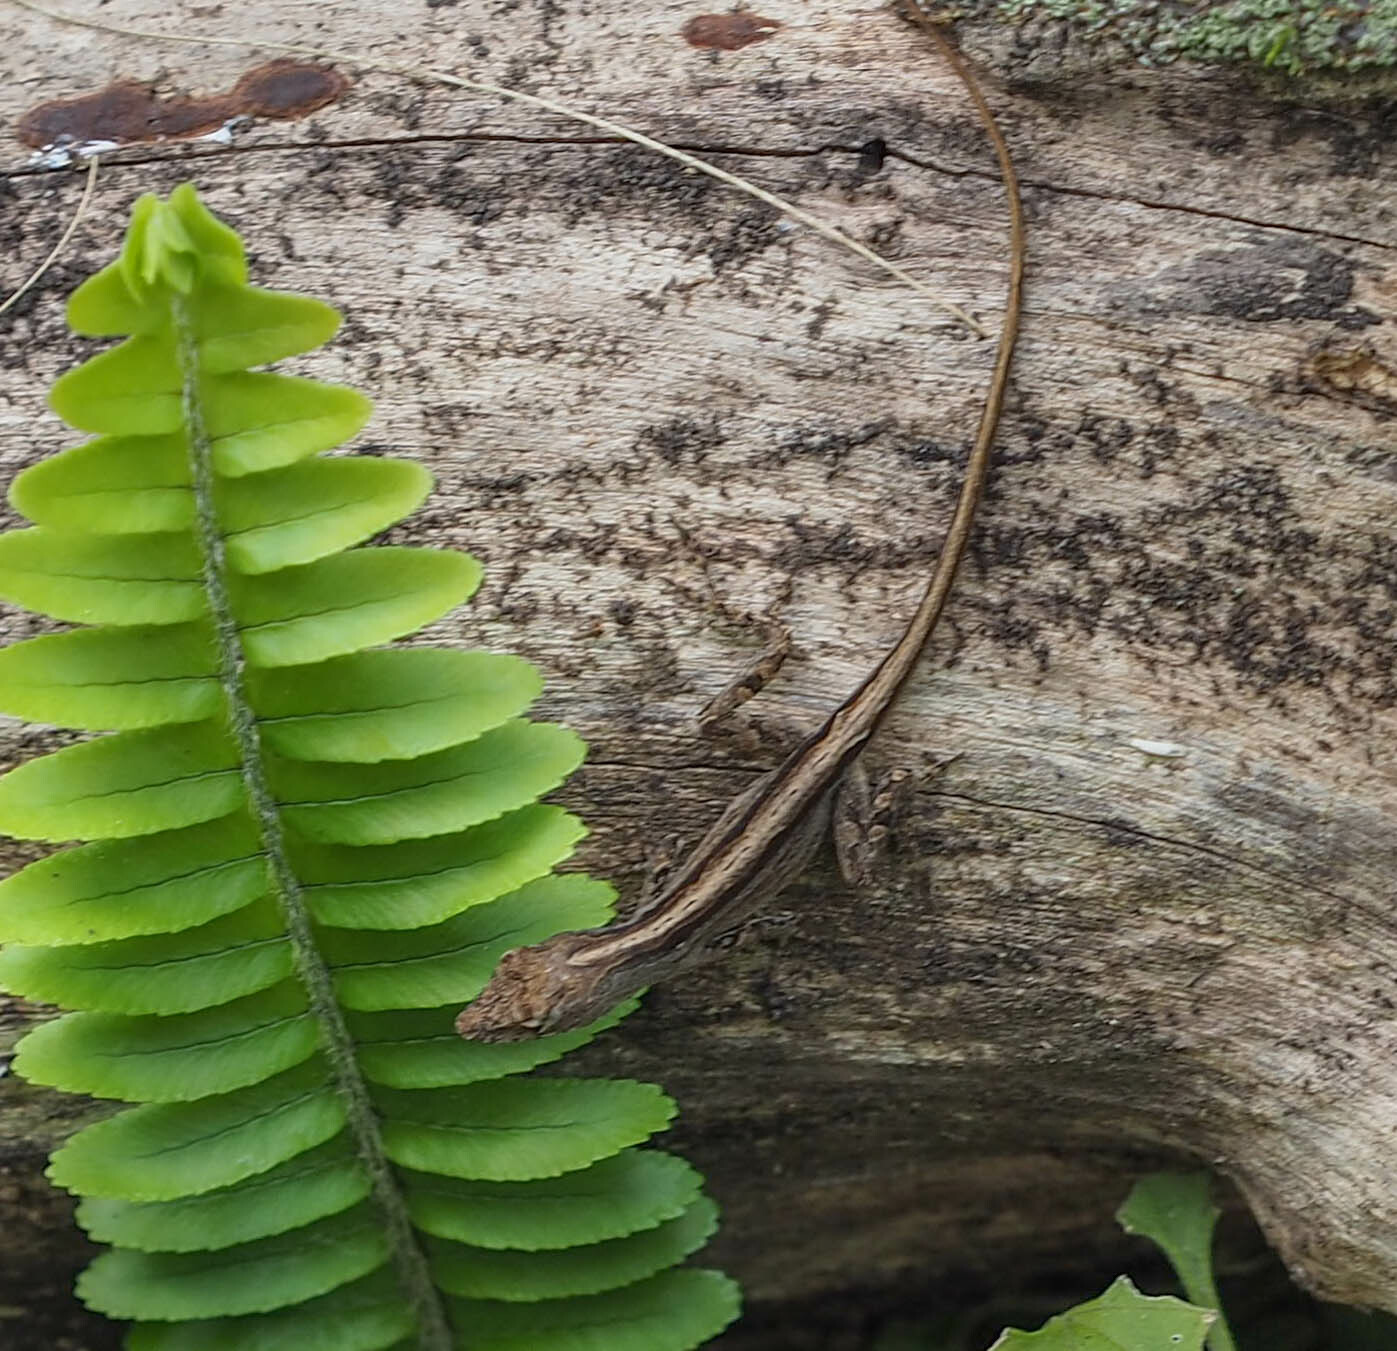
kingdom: Animalia
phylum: Chordata
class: Squamata
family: Dactyloidae
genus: Anolis
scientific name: Anolis sagrei
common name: Brown anole
